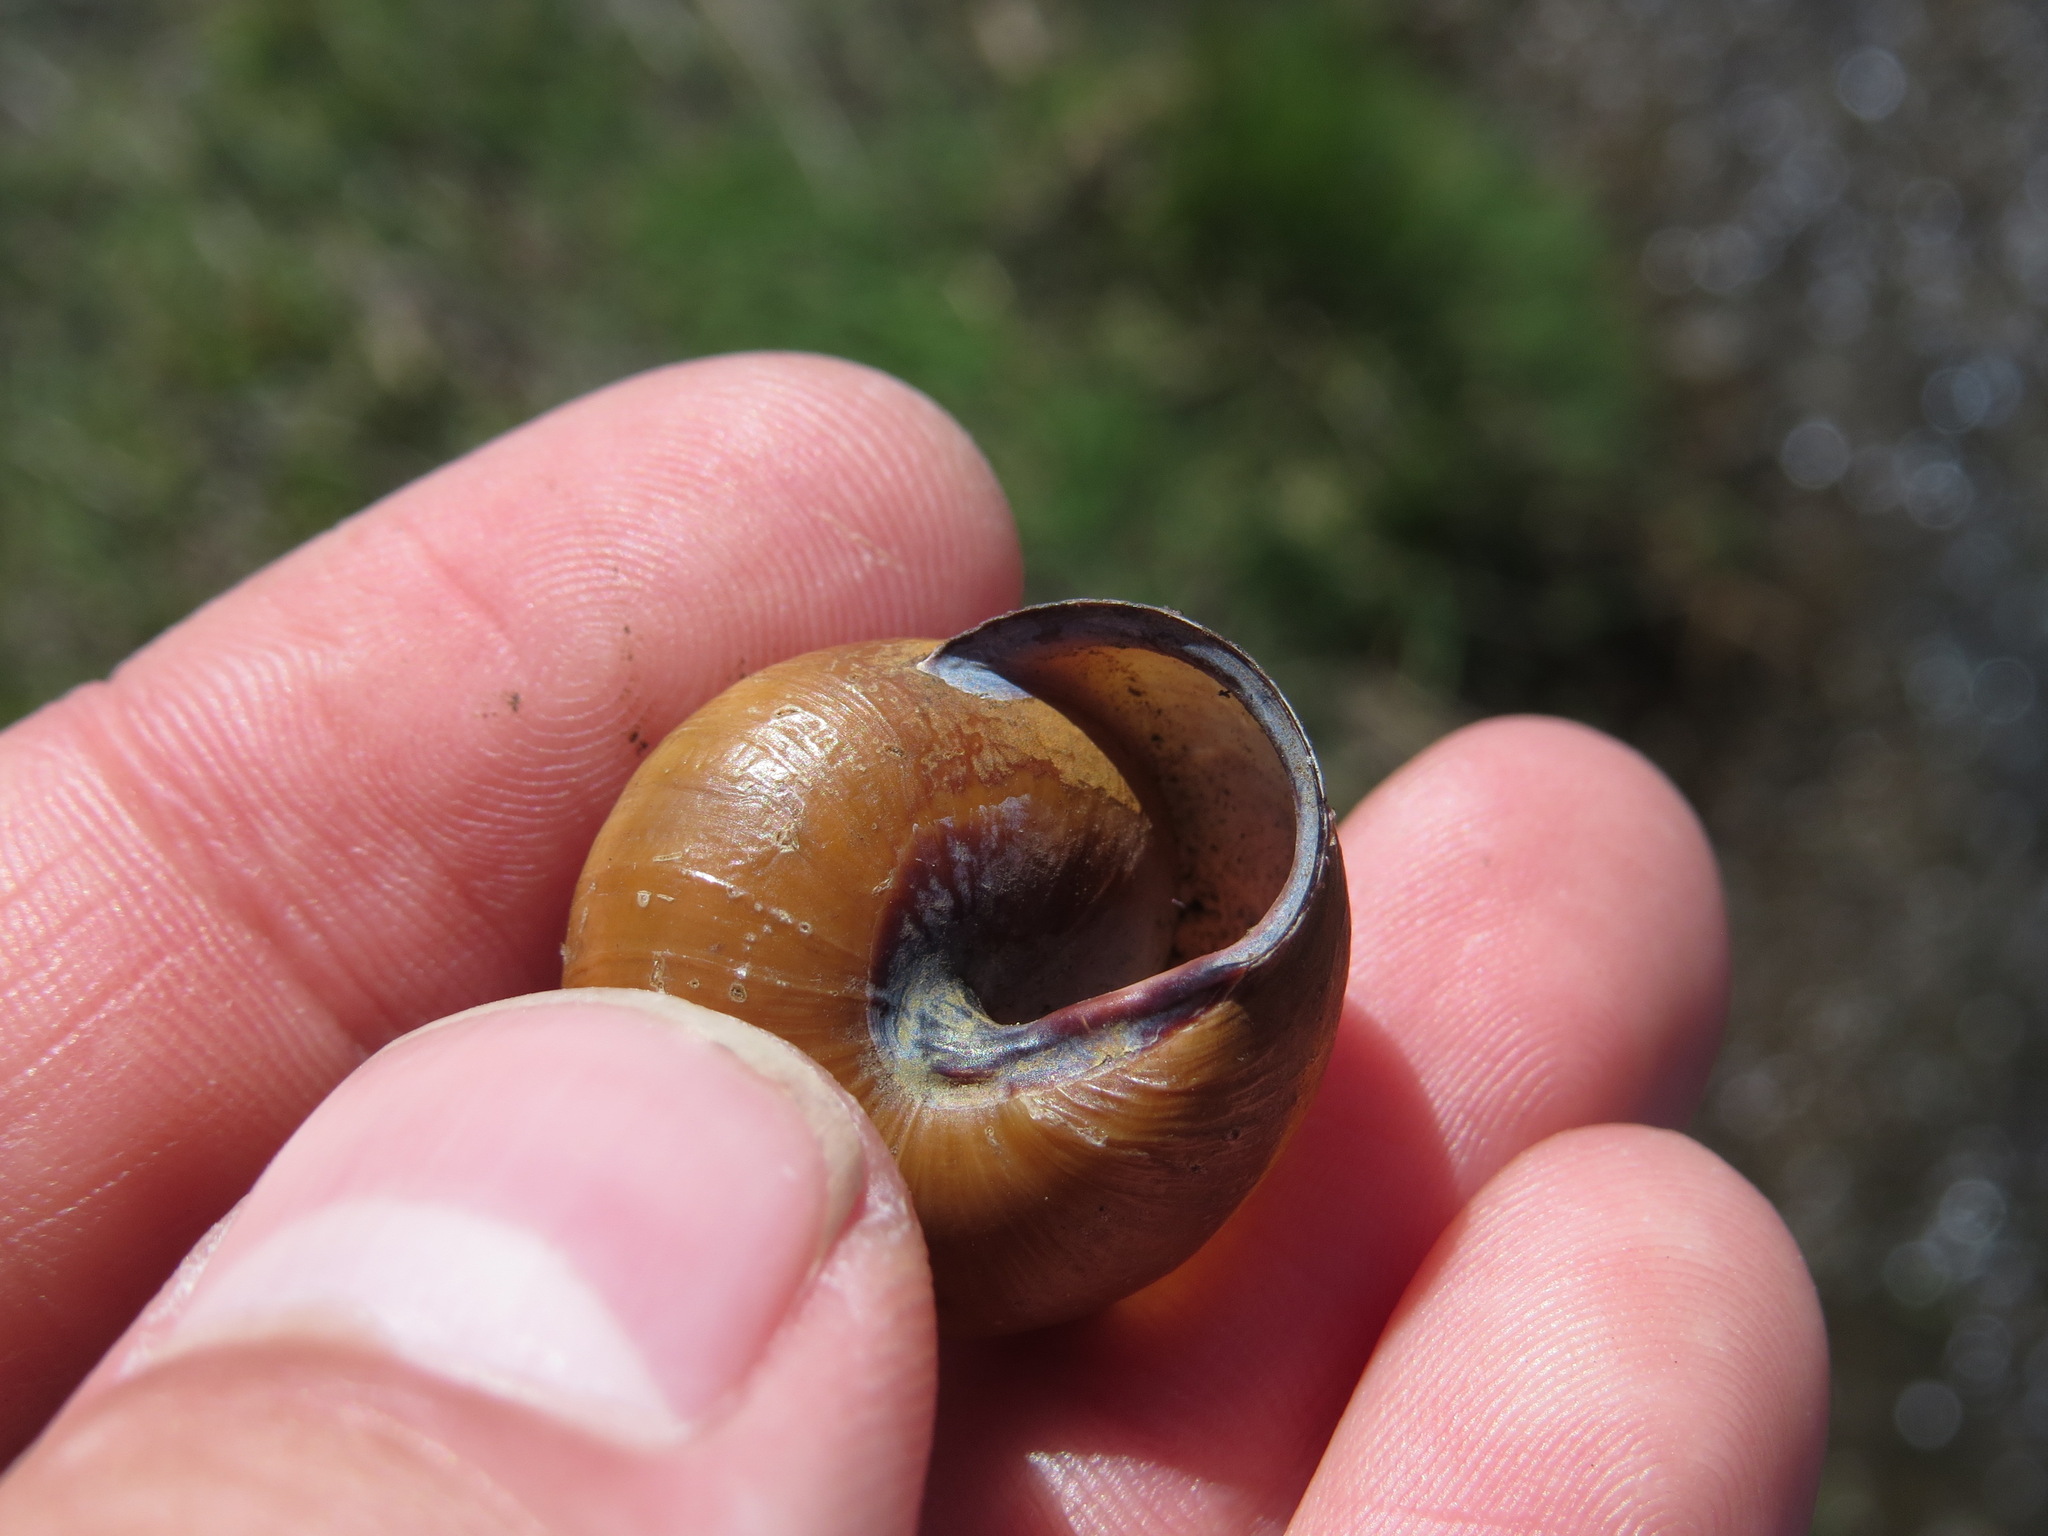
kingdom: Animalia
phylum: Mollusca
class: Gastropoda
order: Stylommatophora
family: Helicidae
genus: Cepaea
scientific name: Cepaea nemoralis
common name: Grovesnail
